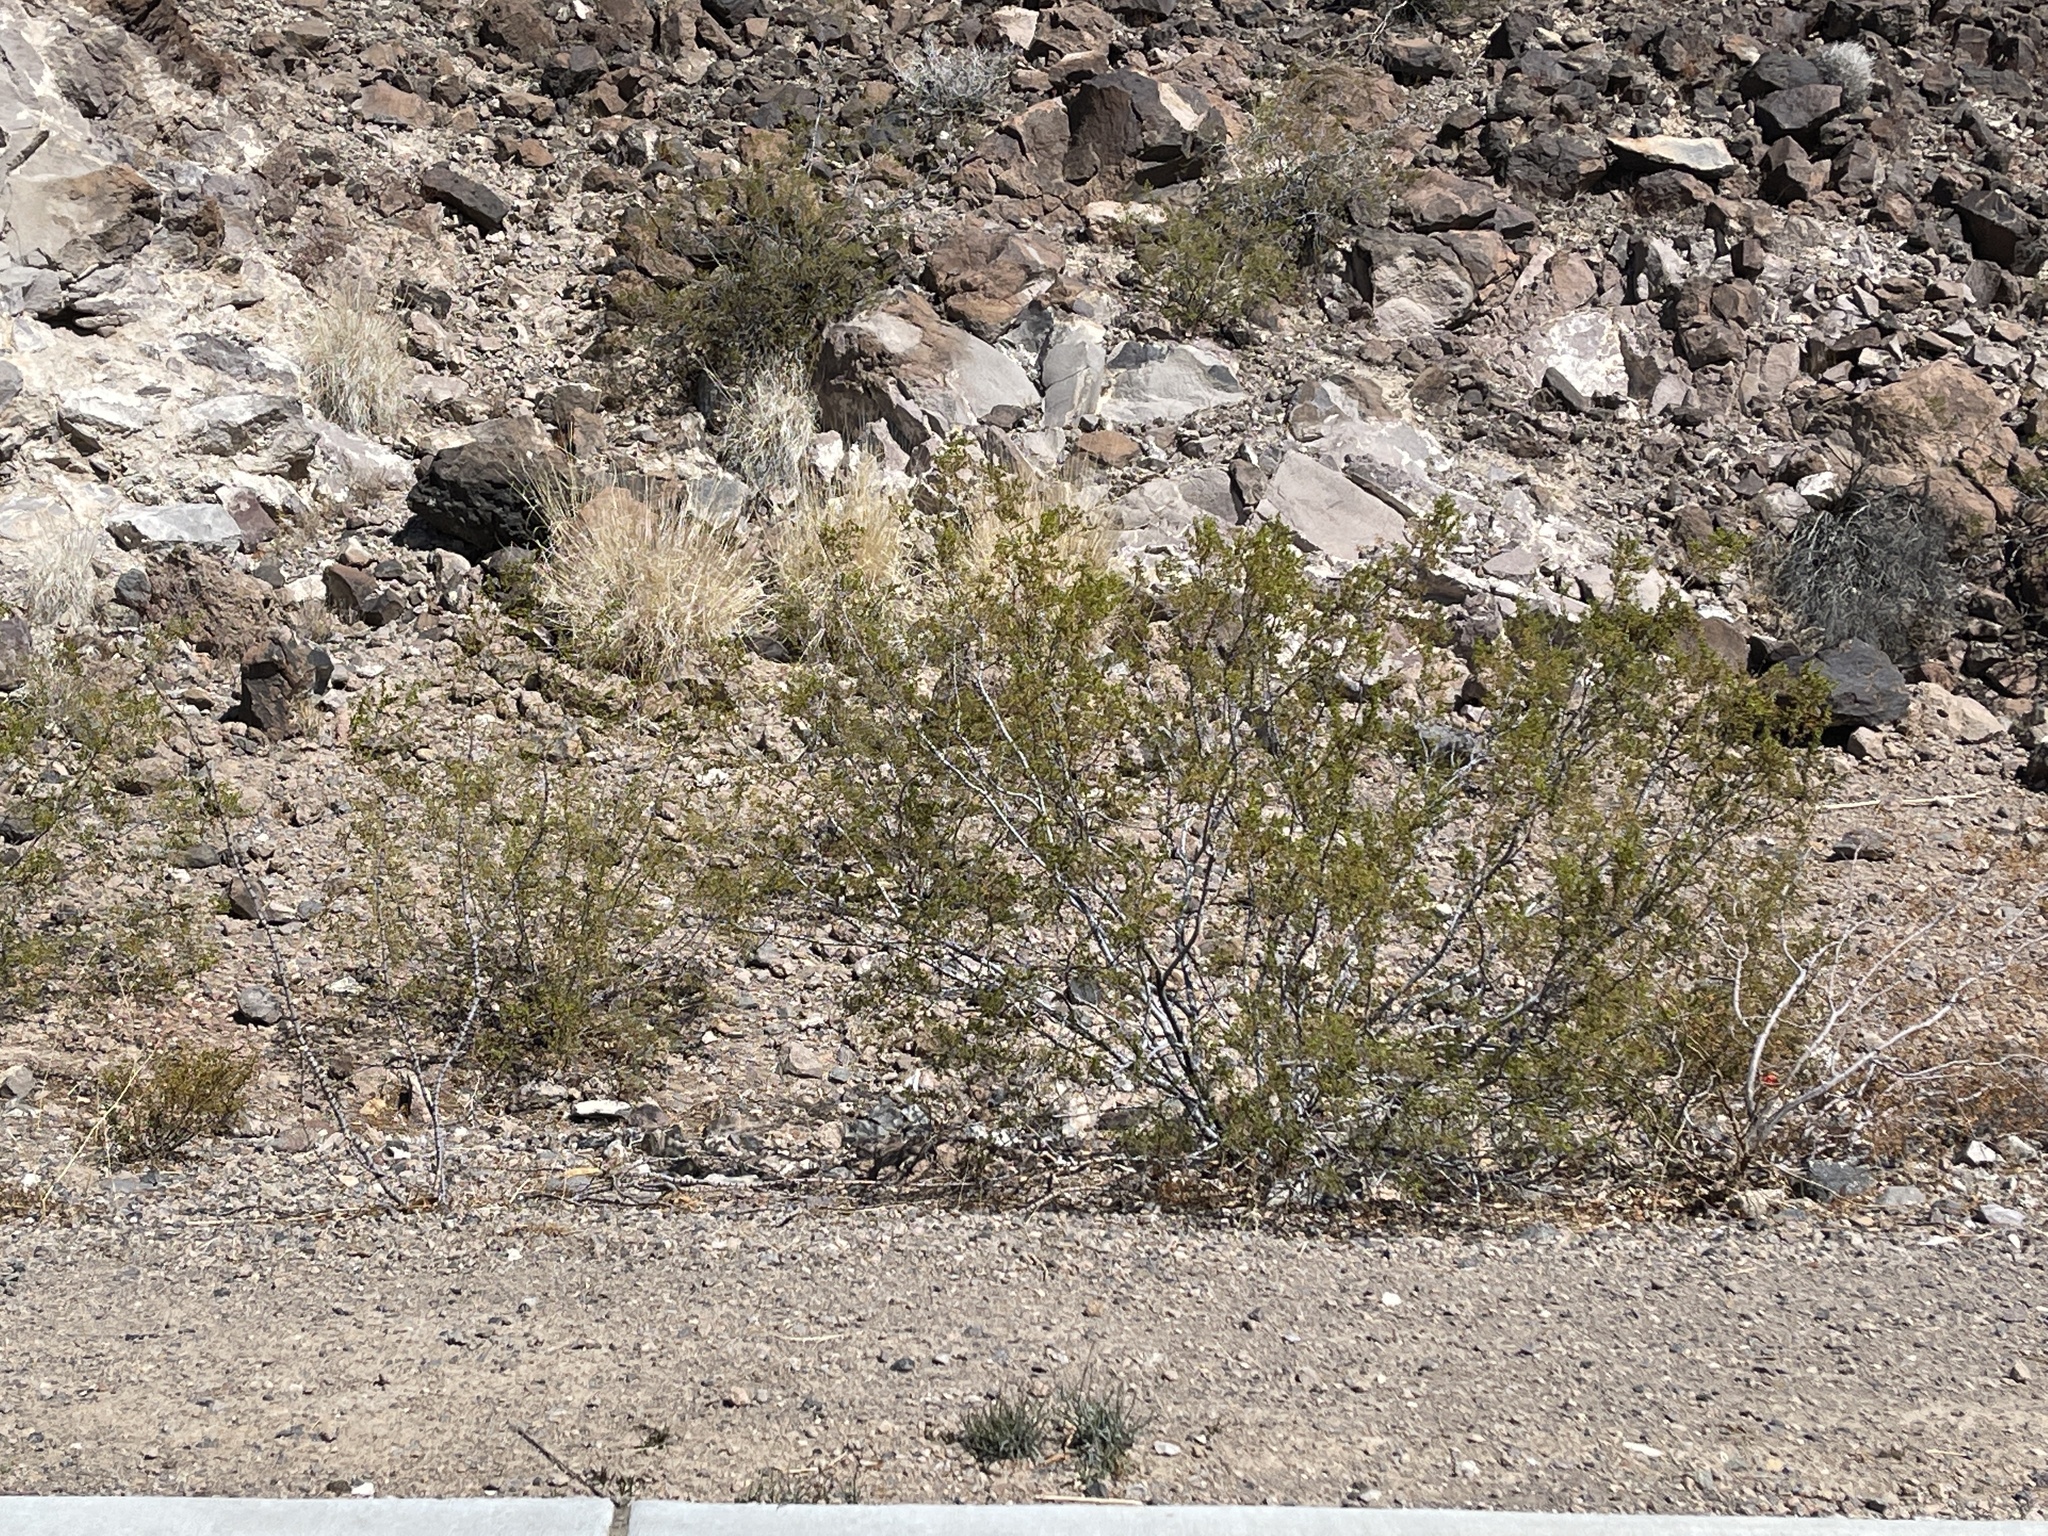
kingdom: Plantae
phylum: Tracheophyta
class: Magnoliopsida
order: Zygophyllales
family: Zygophyllaceae
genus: Larrea
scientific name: Larrea tridentata
